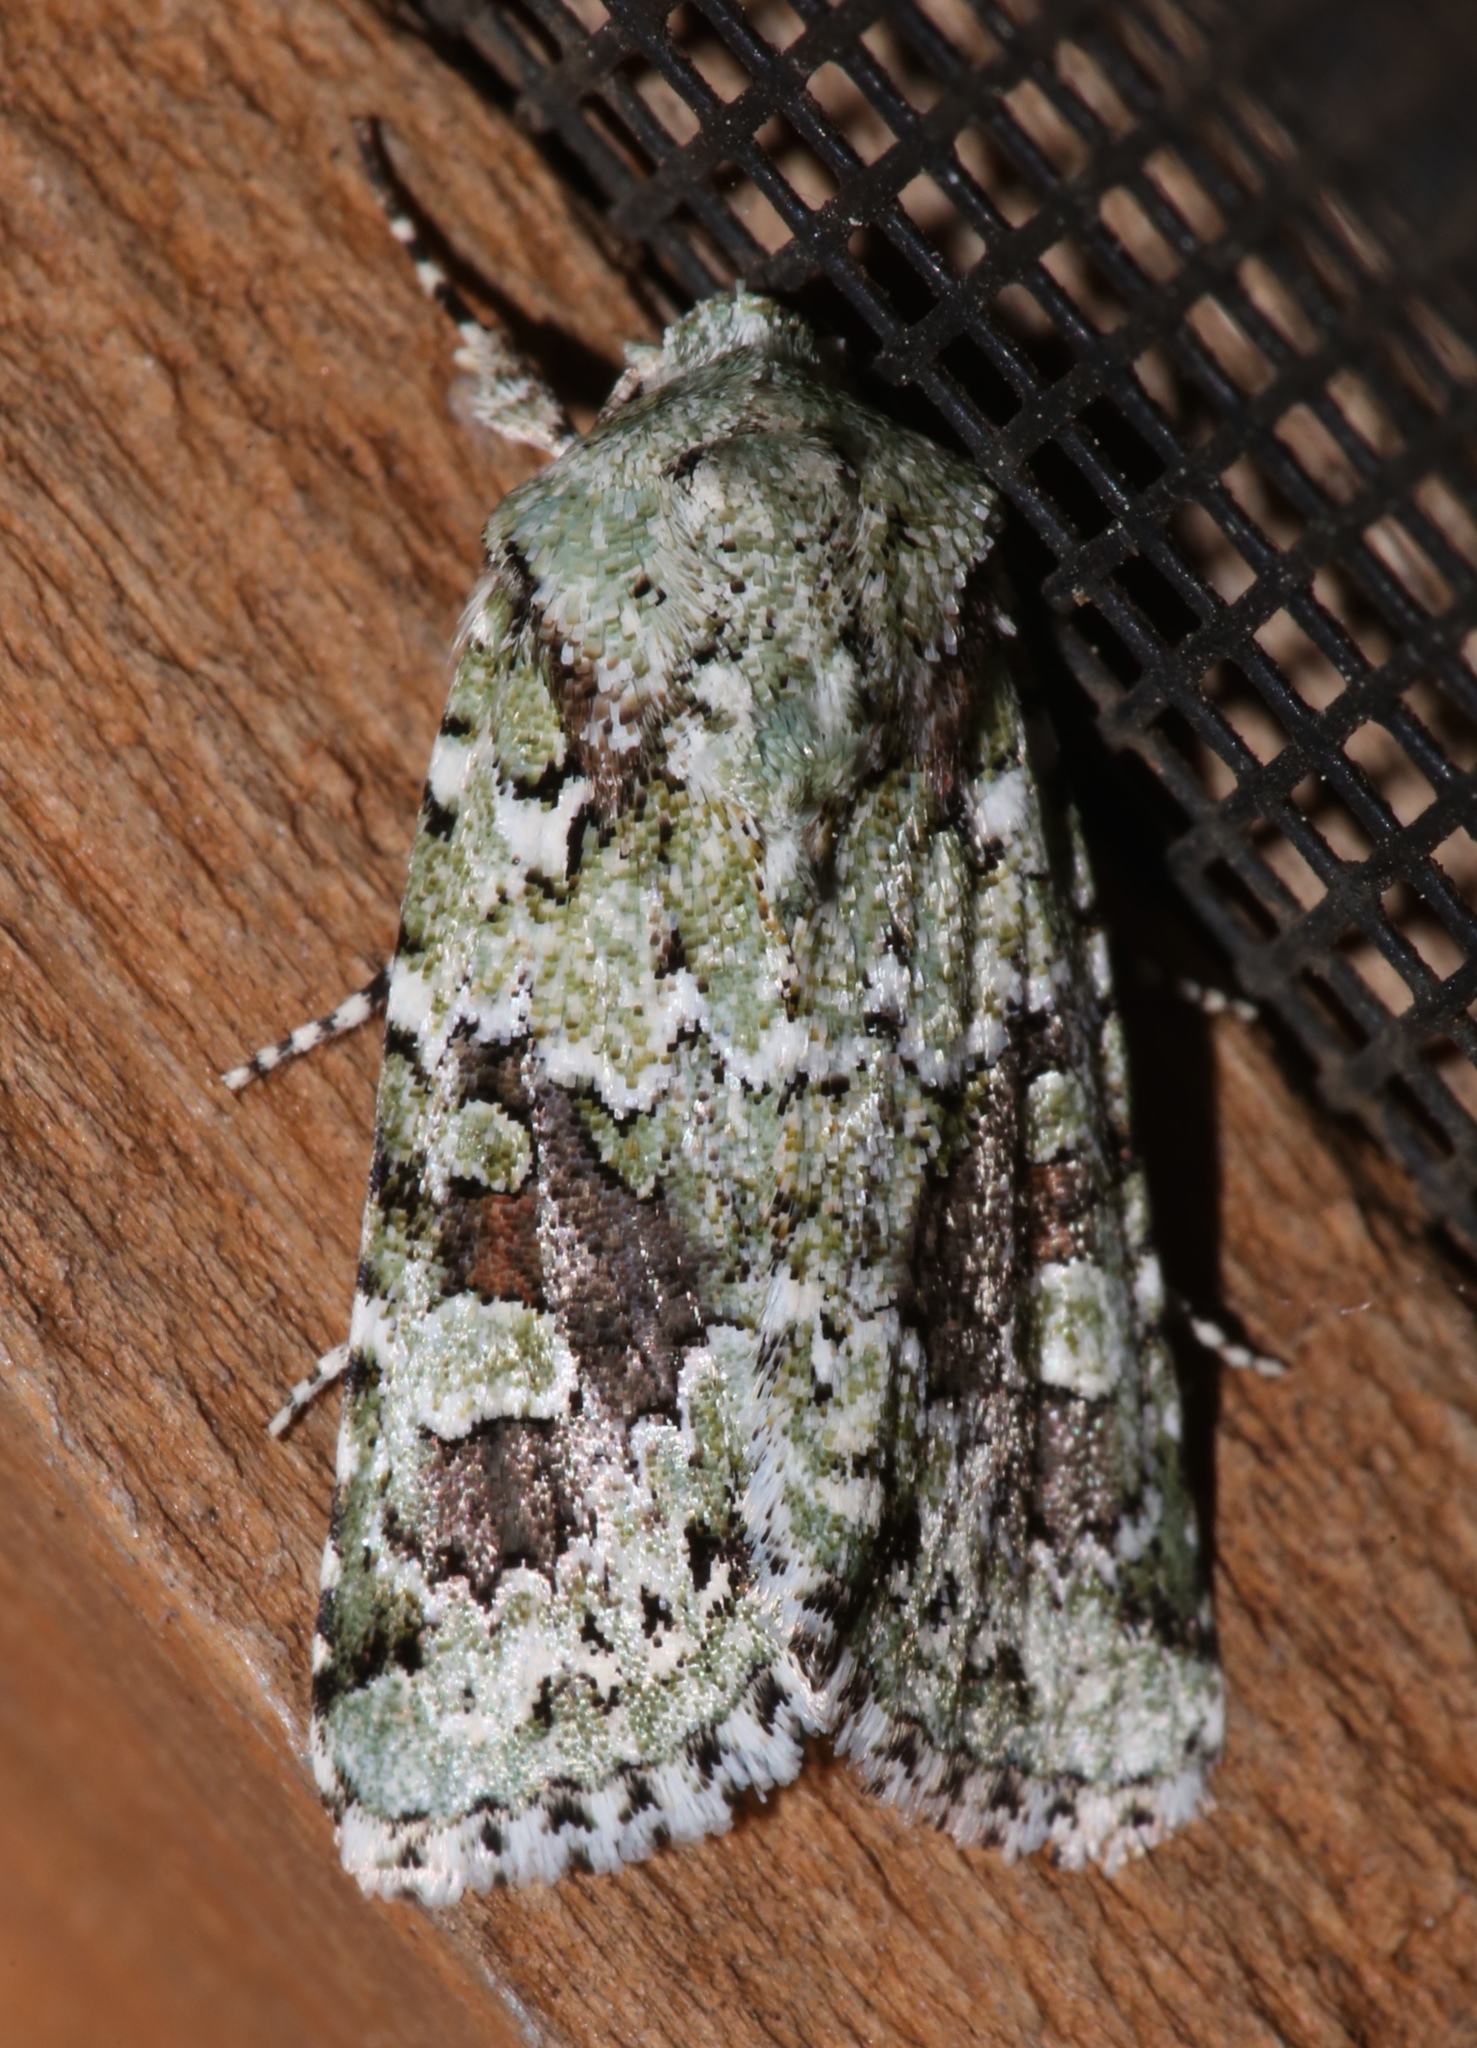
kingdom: Animalia
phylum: Arthropoda
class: Insecta
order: Lepidoptera
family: Noctuidae
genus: Lacinipolia
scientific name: Lacinipolia laudabilis
